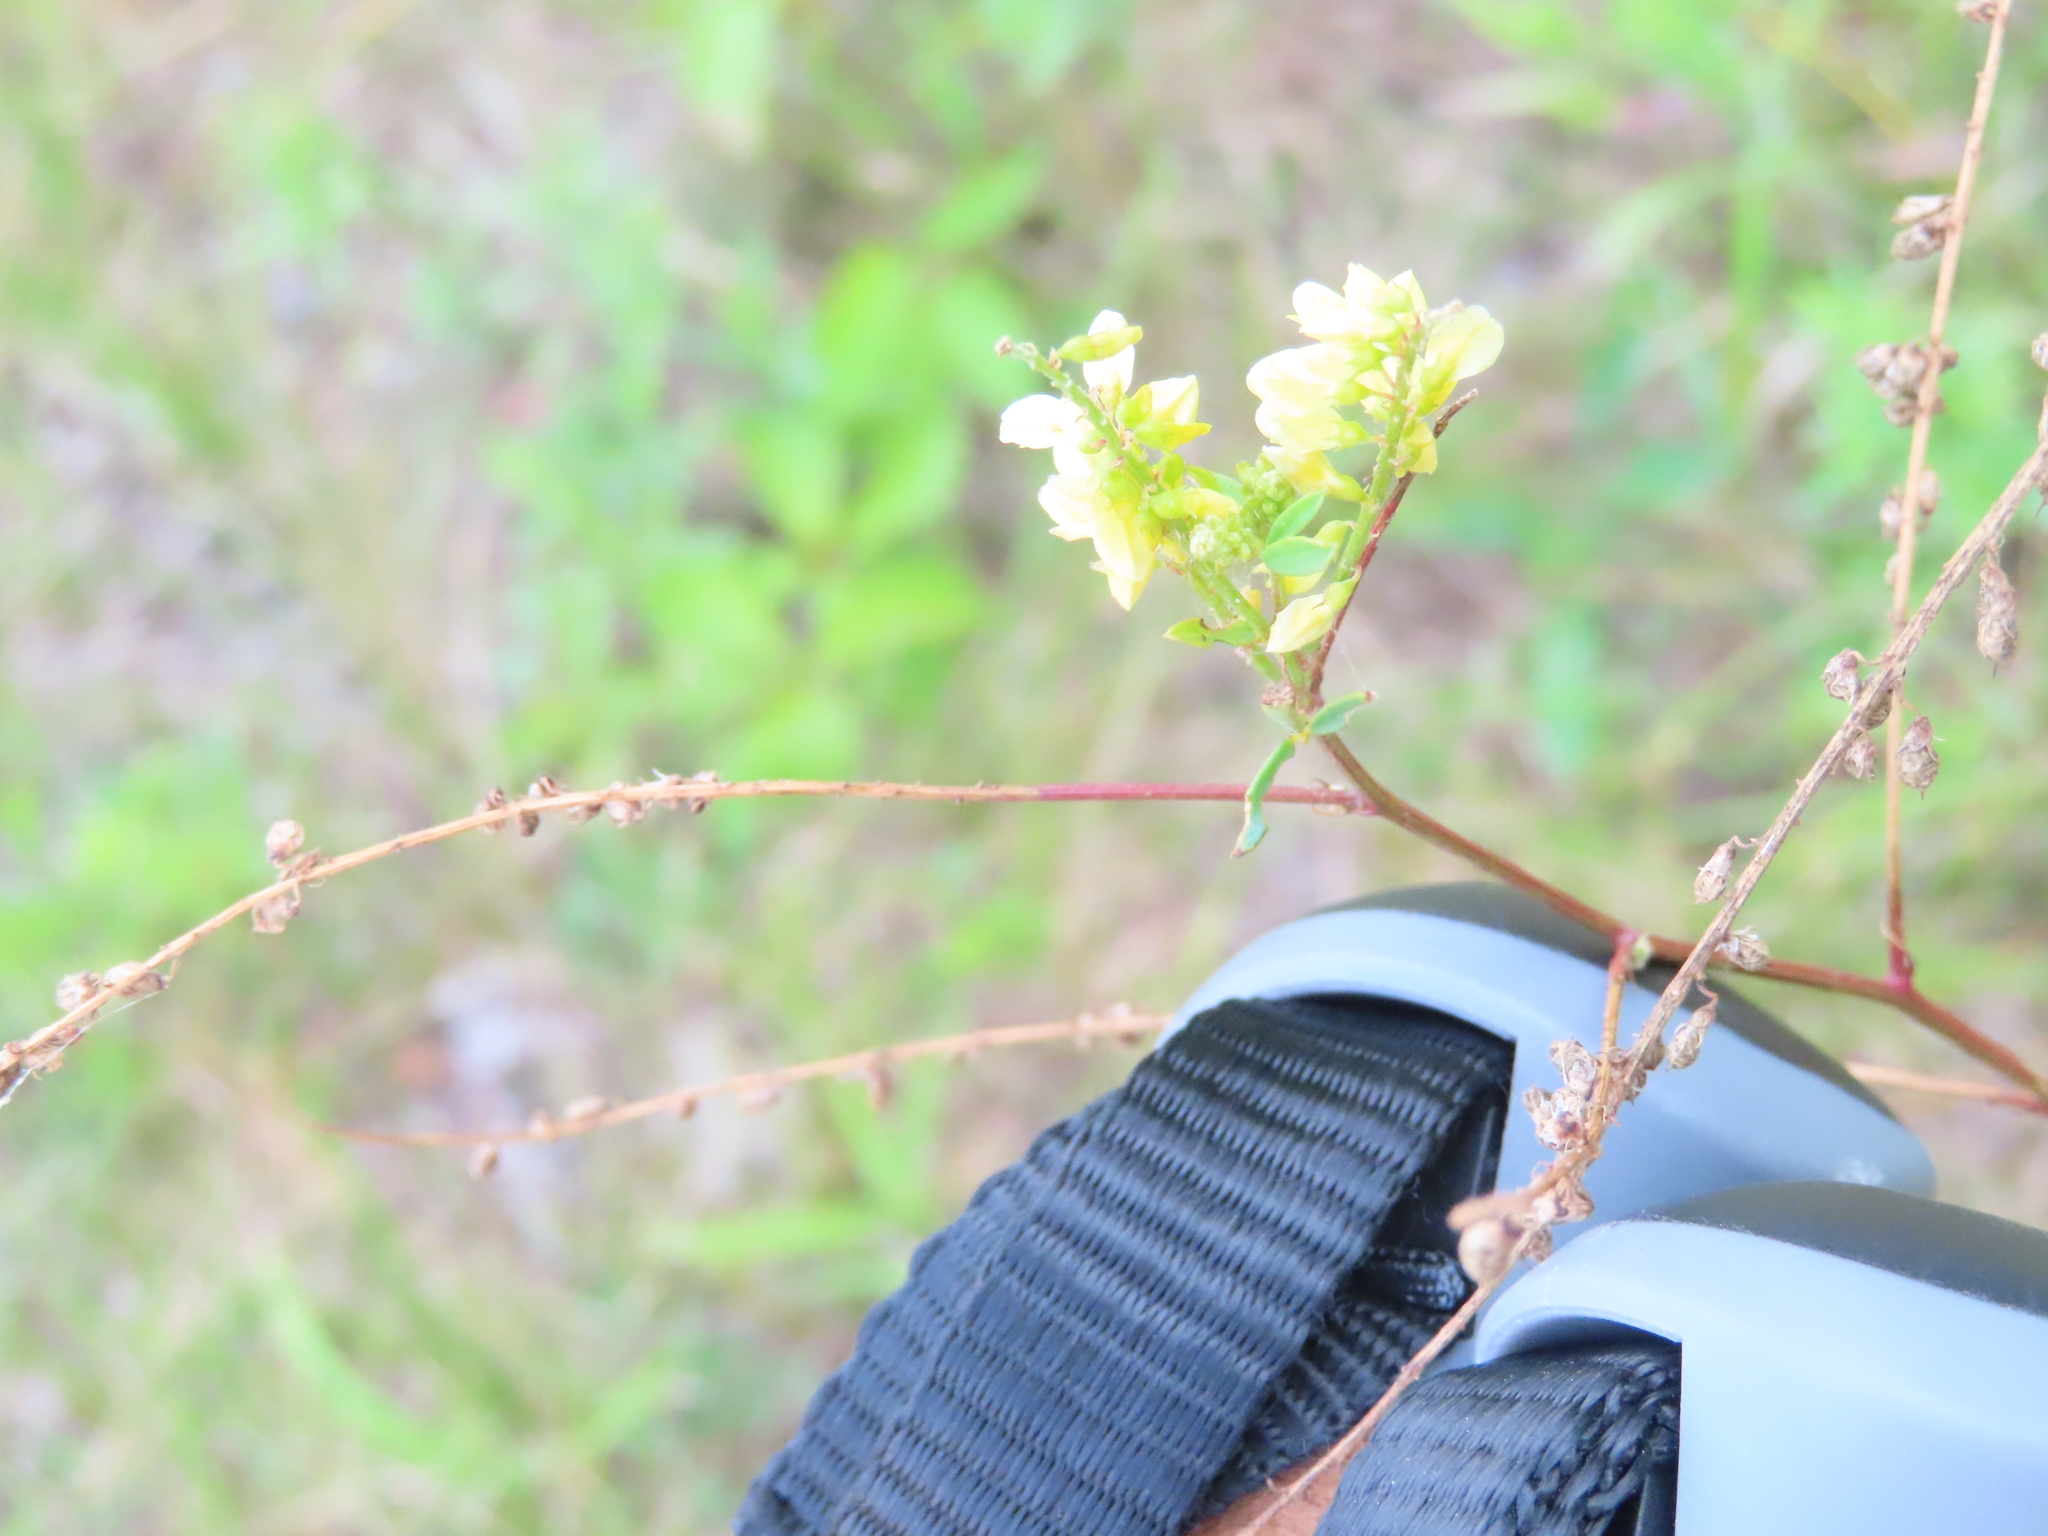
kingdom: Plantae
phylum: Tracheophyta
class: Magnoliopsida
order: Fabales
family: Fabaceae
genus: Melilotus
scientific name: Melilotus officinalis
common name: Sweetclover
